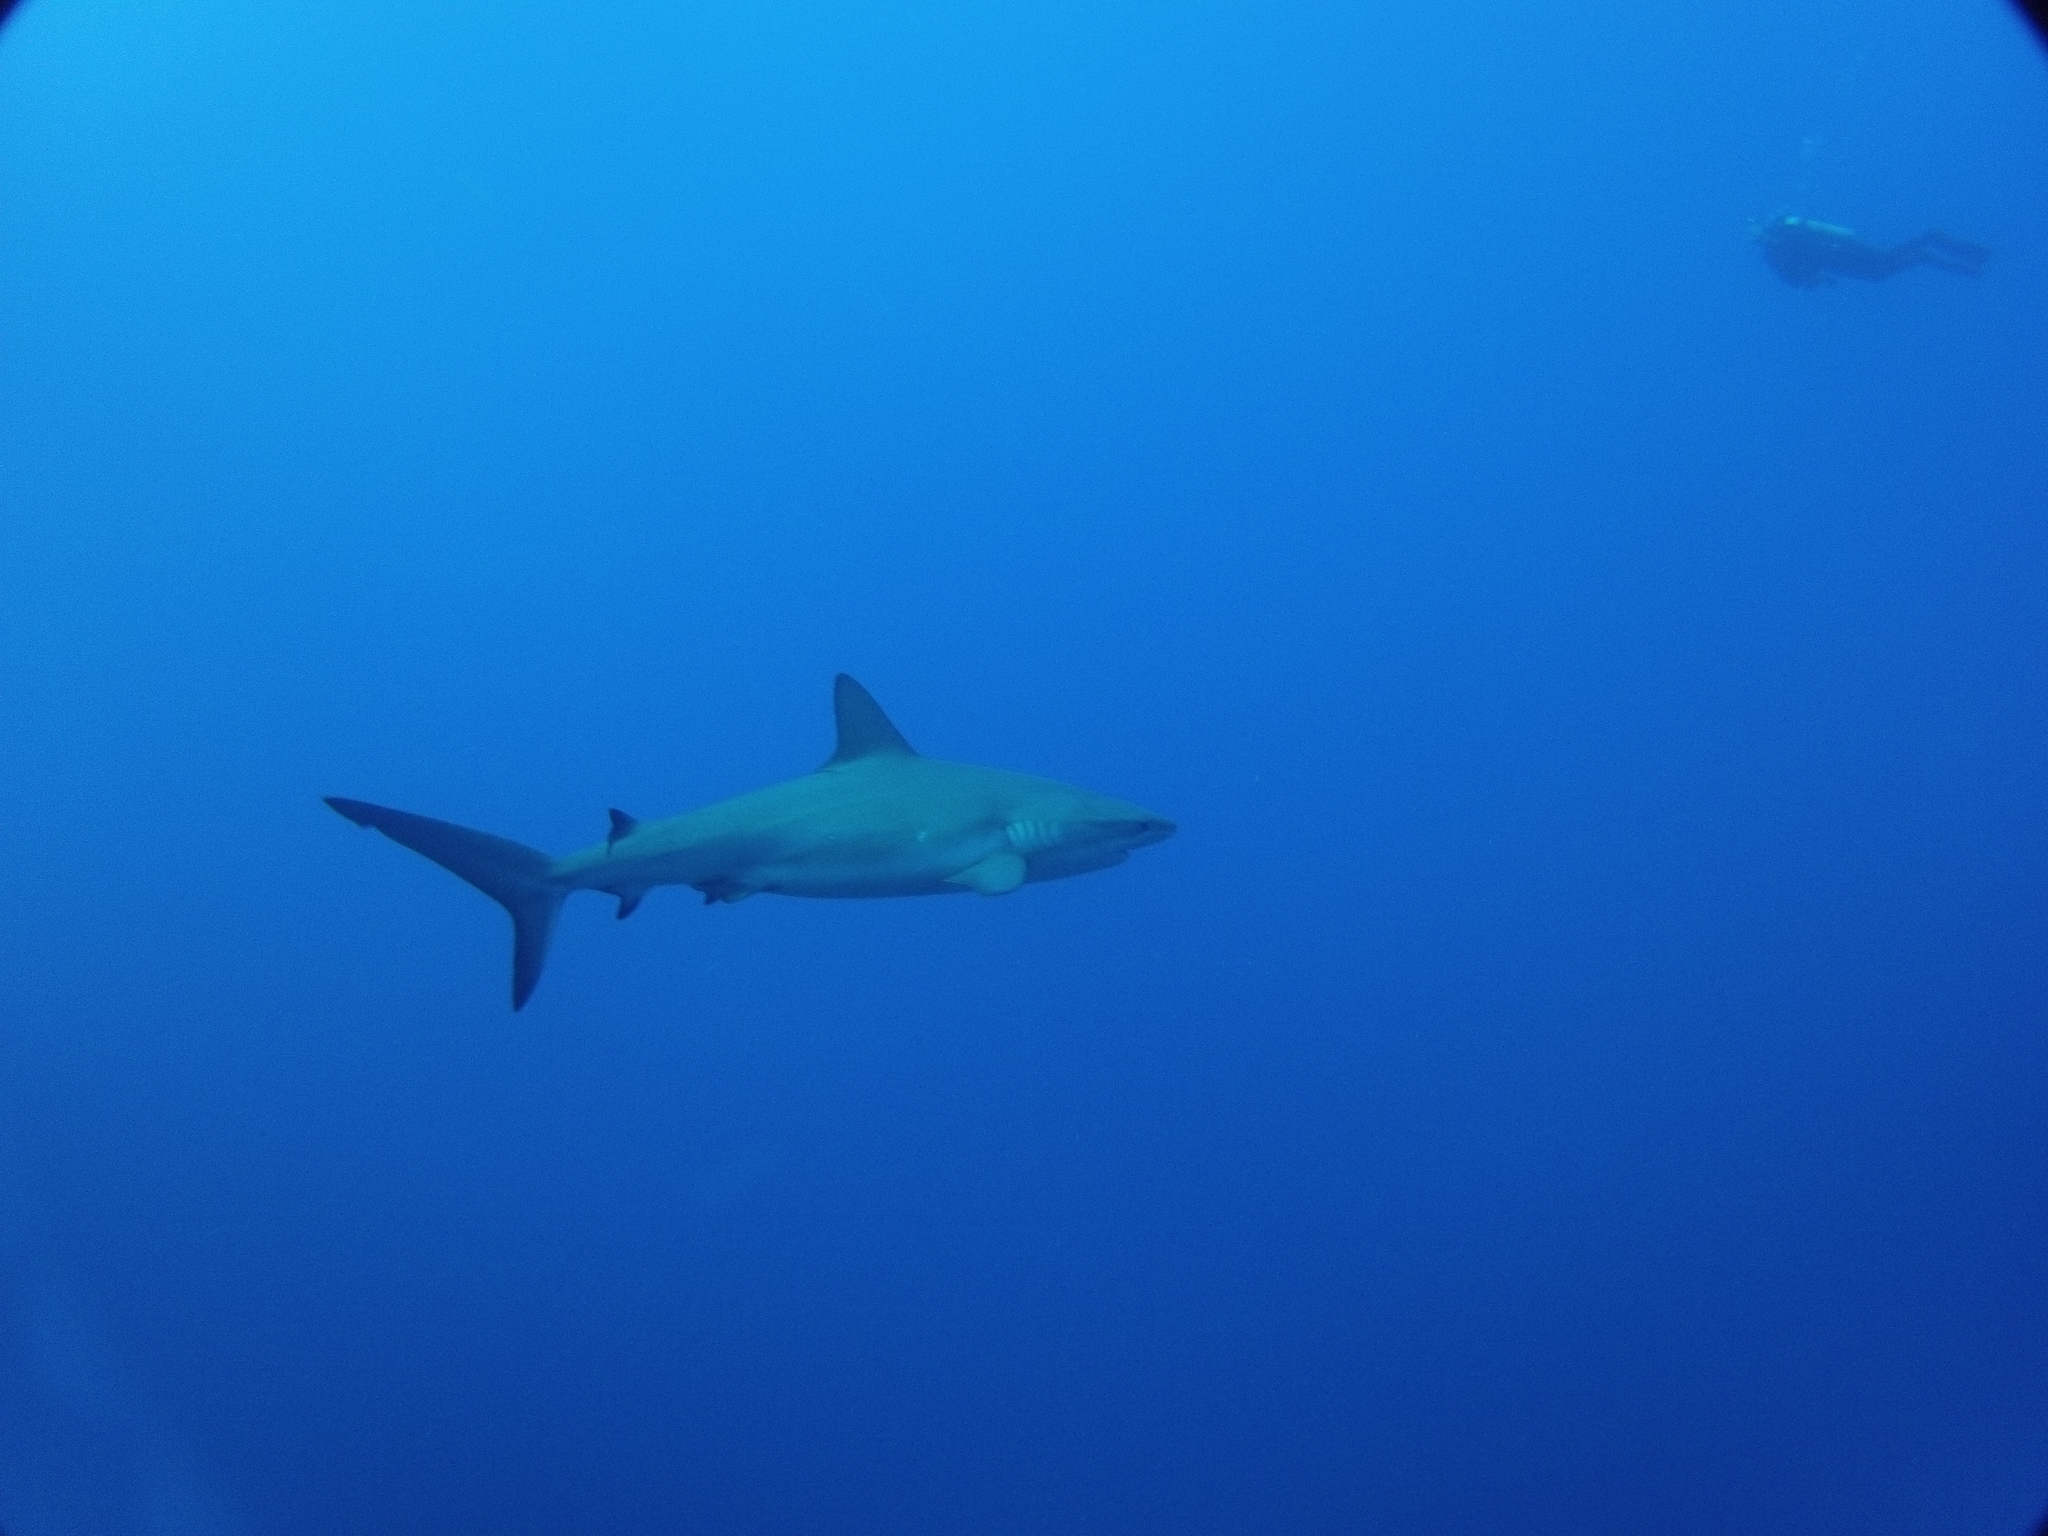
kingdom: Animalia
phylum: Chordata
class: Elasmobranchii
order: Carcharhiniformes
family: Carcharhinidae
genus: Carcharhinus
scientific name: Carcharhinus perezii
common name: Reef shark
